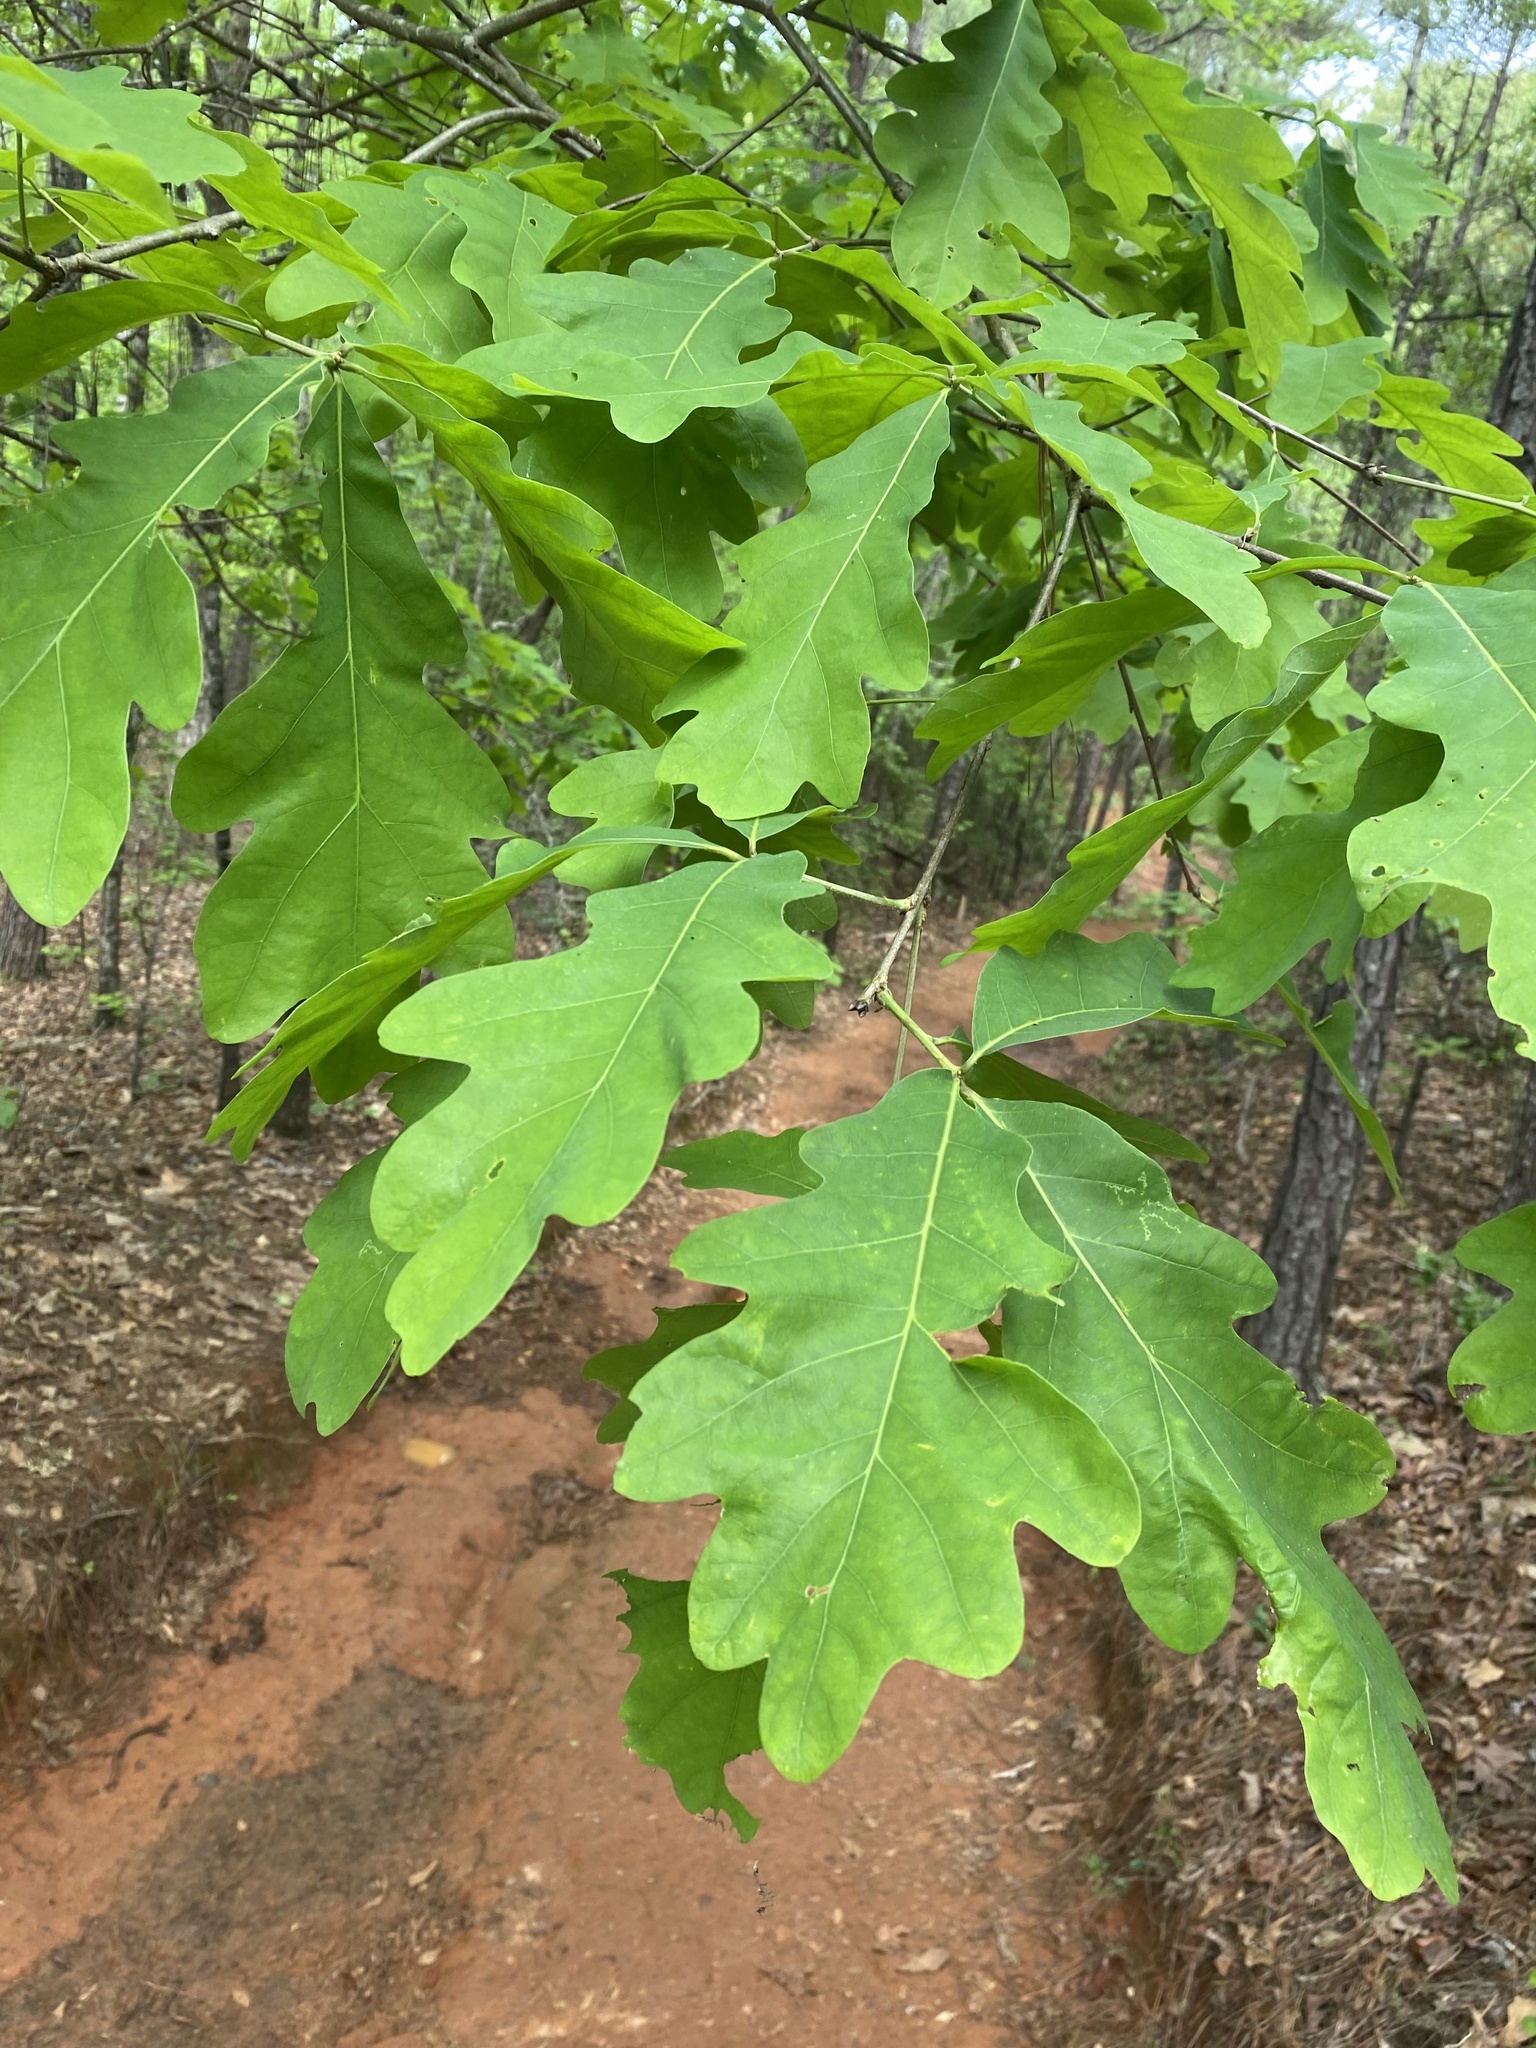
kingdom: Plantae
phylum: Tracheophyta
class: Magnoliopsida
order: Fagales
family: Fagaceae
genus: Quercus
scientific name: Quercus alba
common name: White oak
